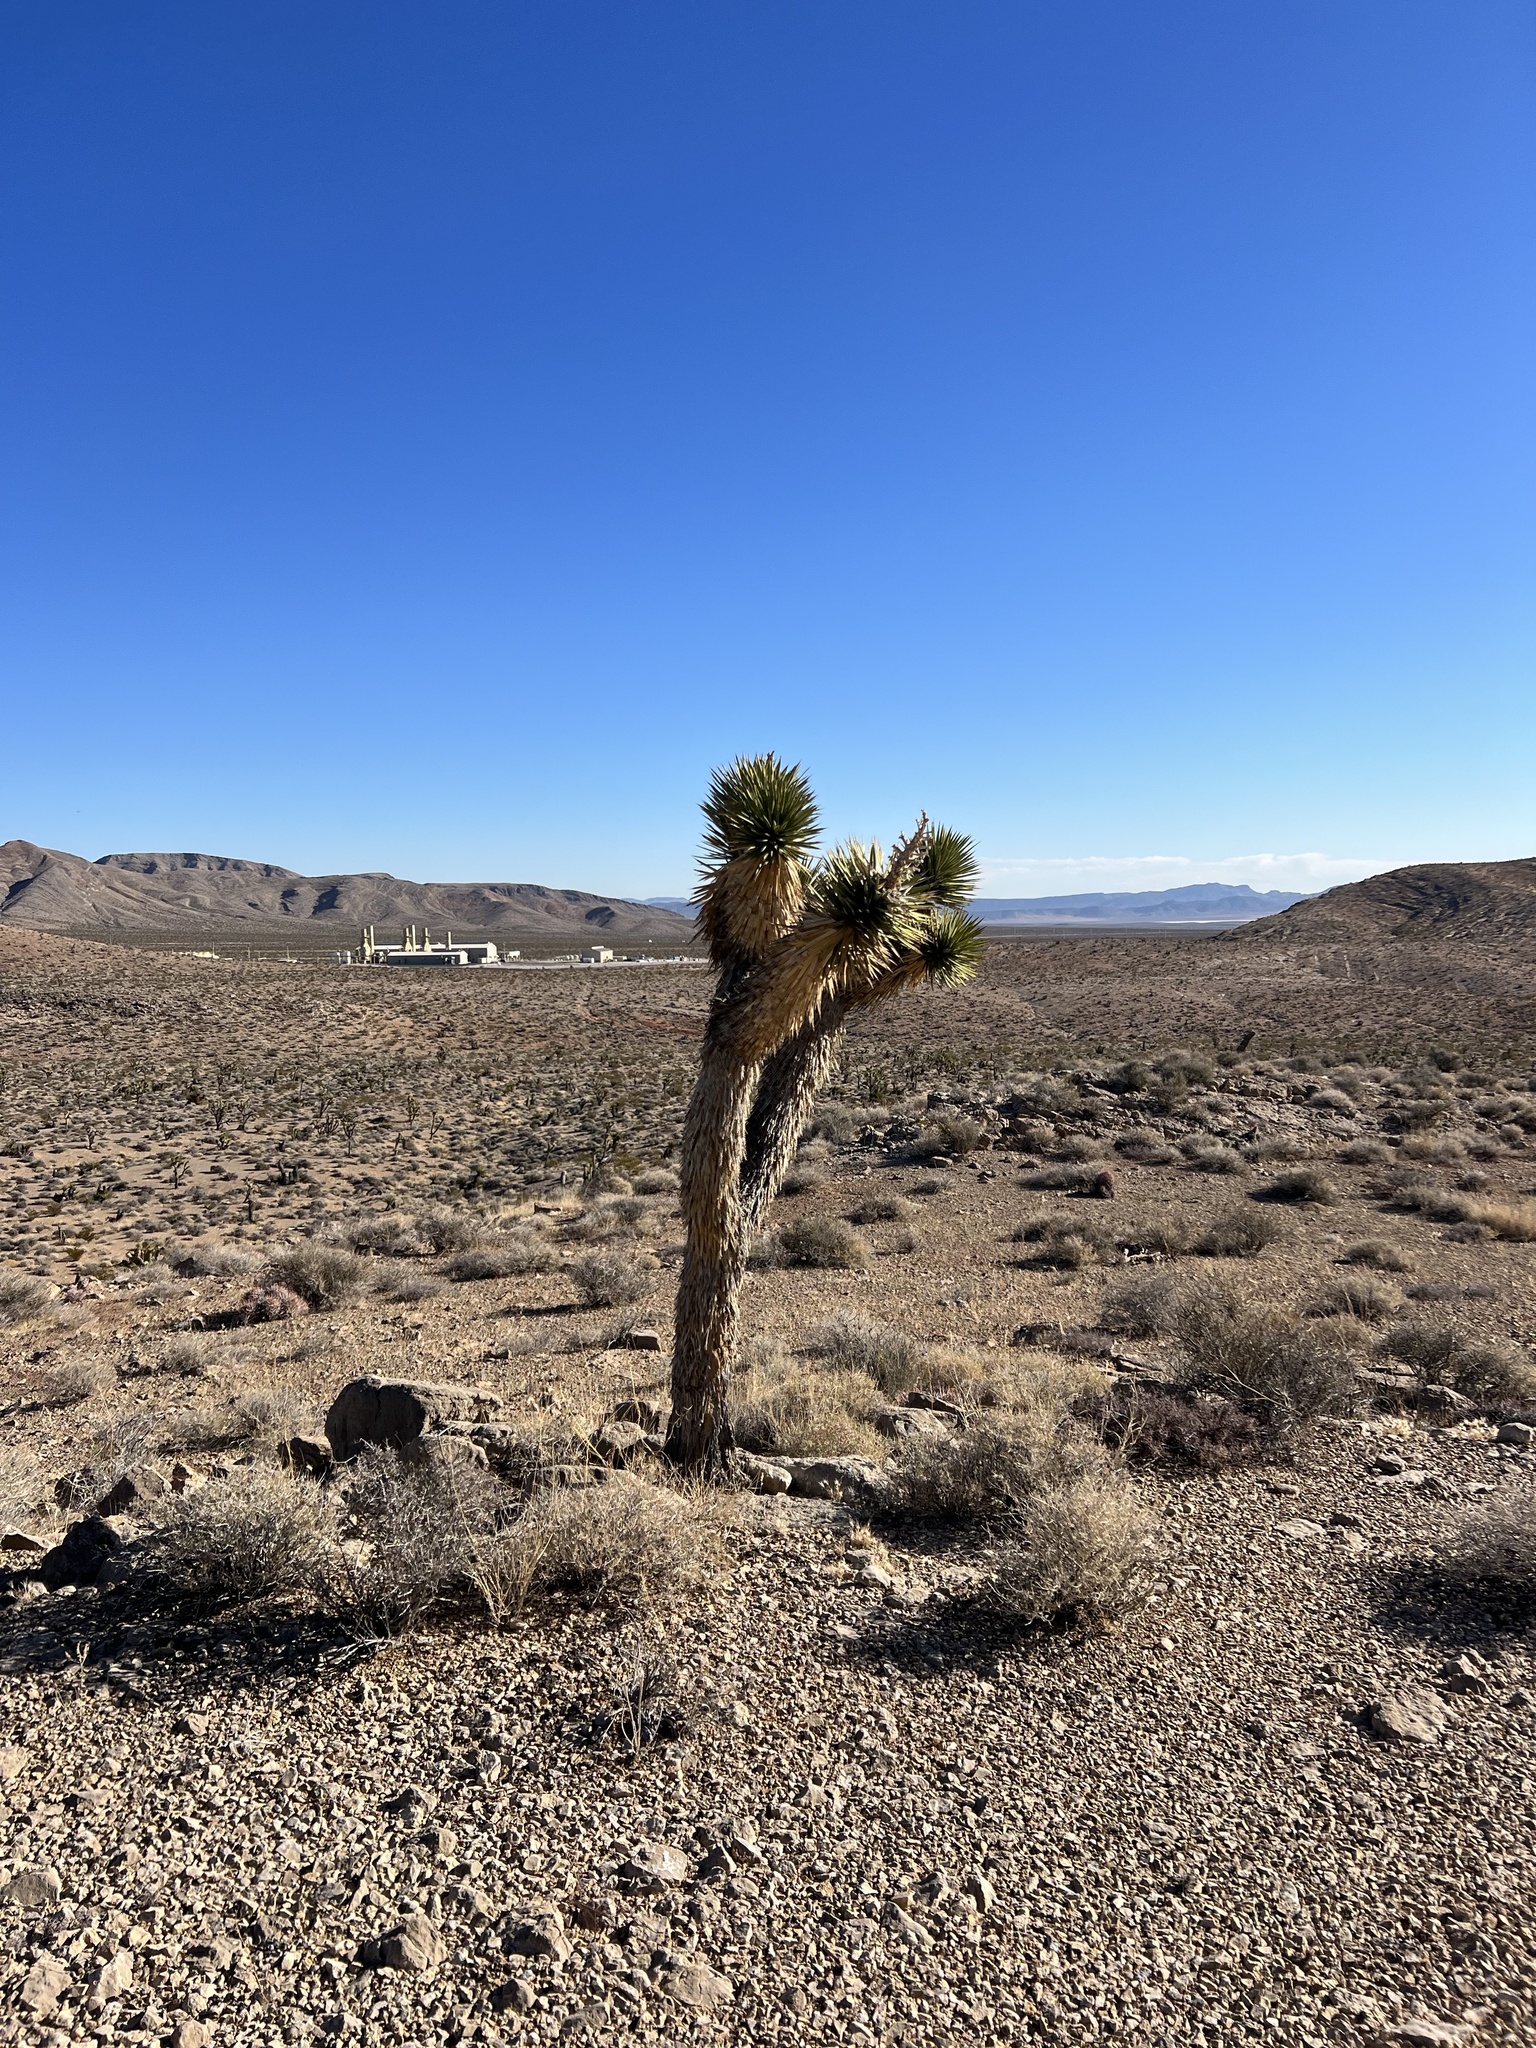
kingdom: Plantae
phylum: Tracheophyta
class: Liliopsida
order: Asparagales
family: Asparagaceae
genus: Yucca
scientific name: Yucca brevifolia
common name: Joshua tree
